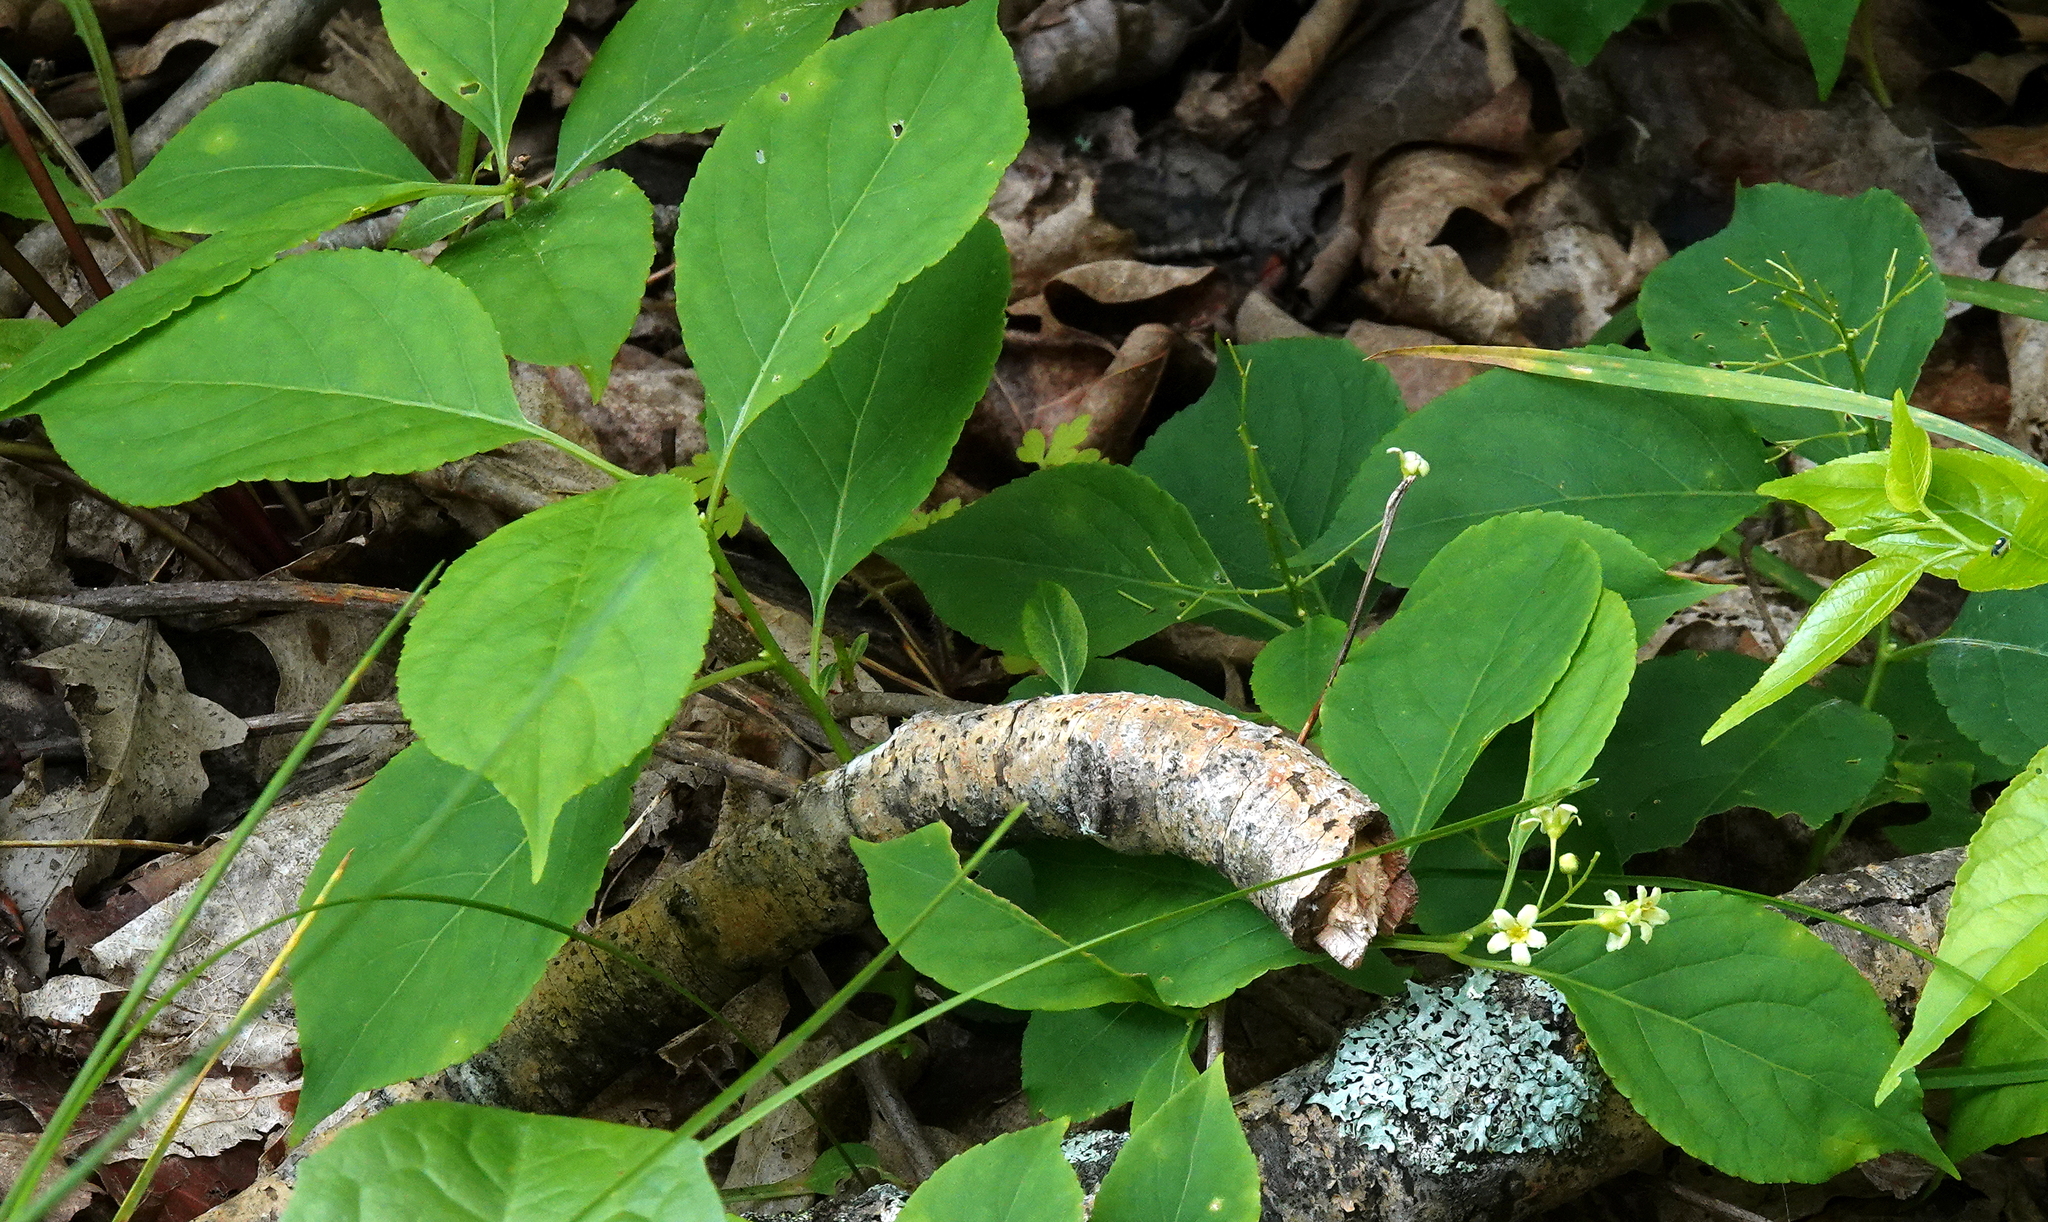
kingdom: Plantae
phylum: Tracheophyta
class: Magnoliopsida
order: Celastrales
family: Celastraceae
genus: Celastrus
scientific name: Celastrus scandens
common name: American bittersweet
